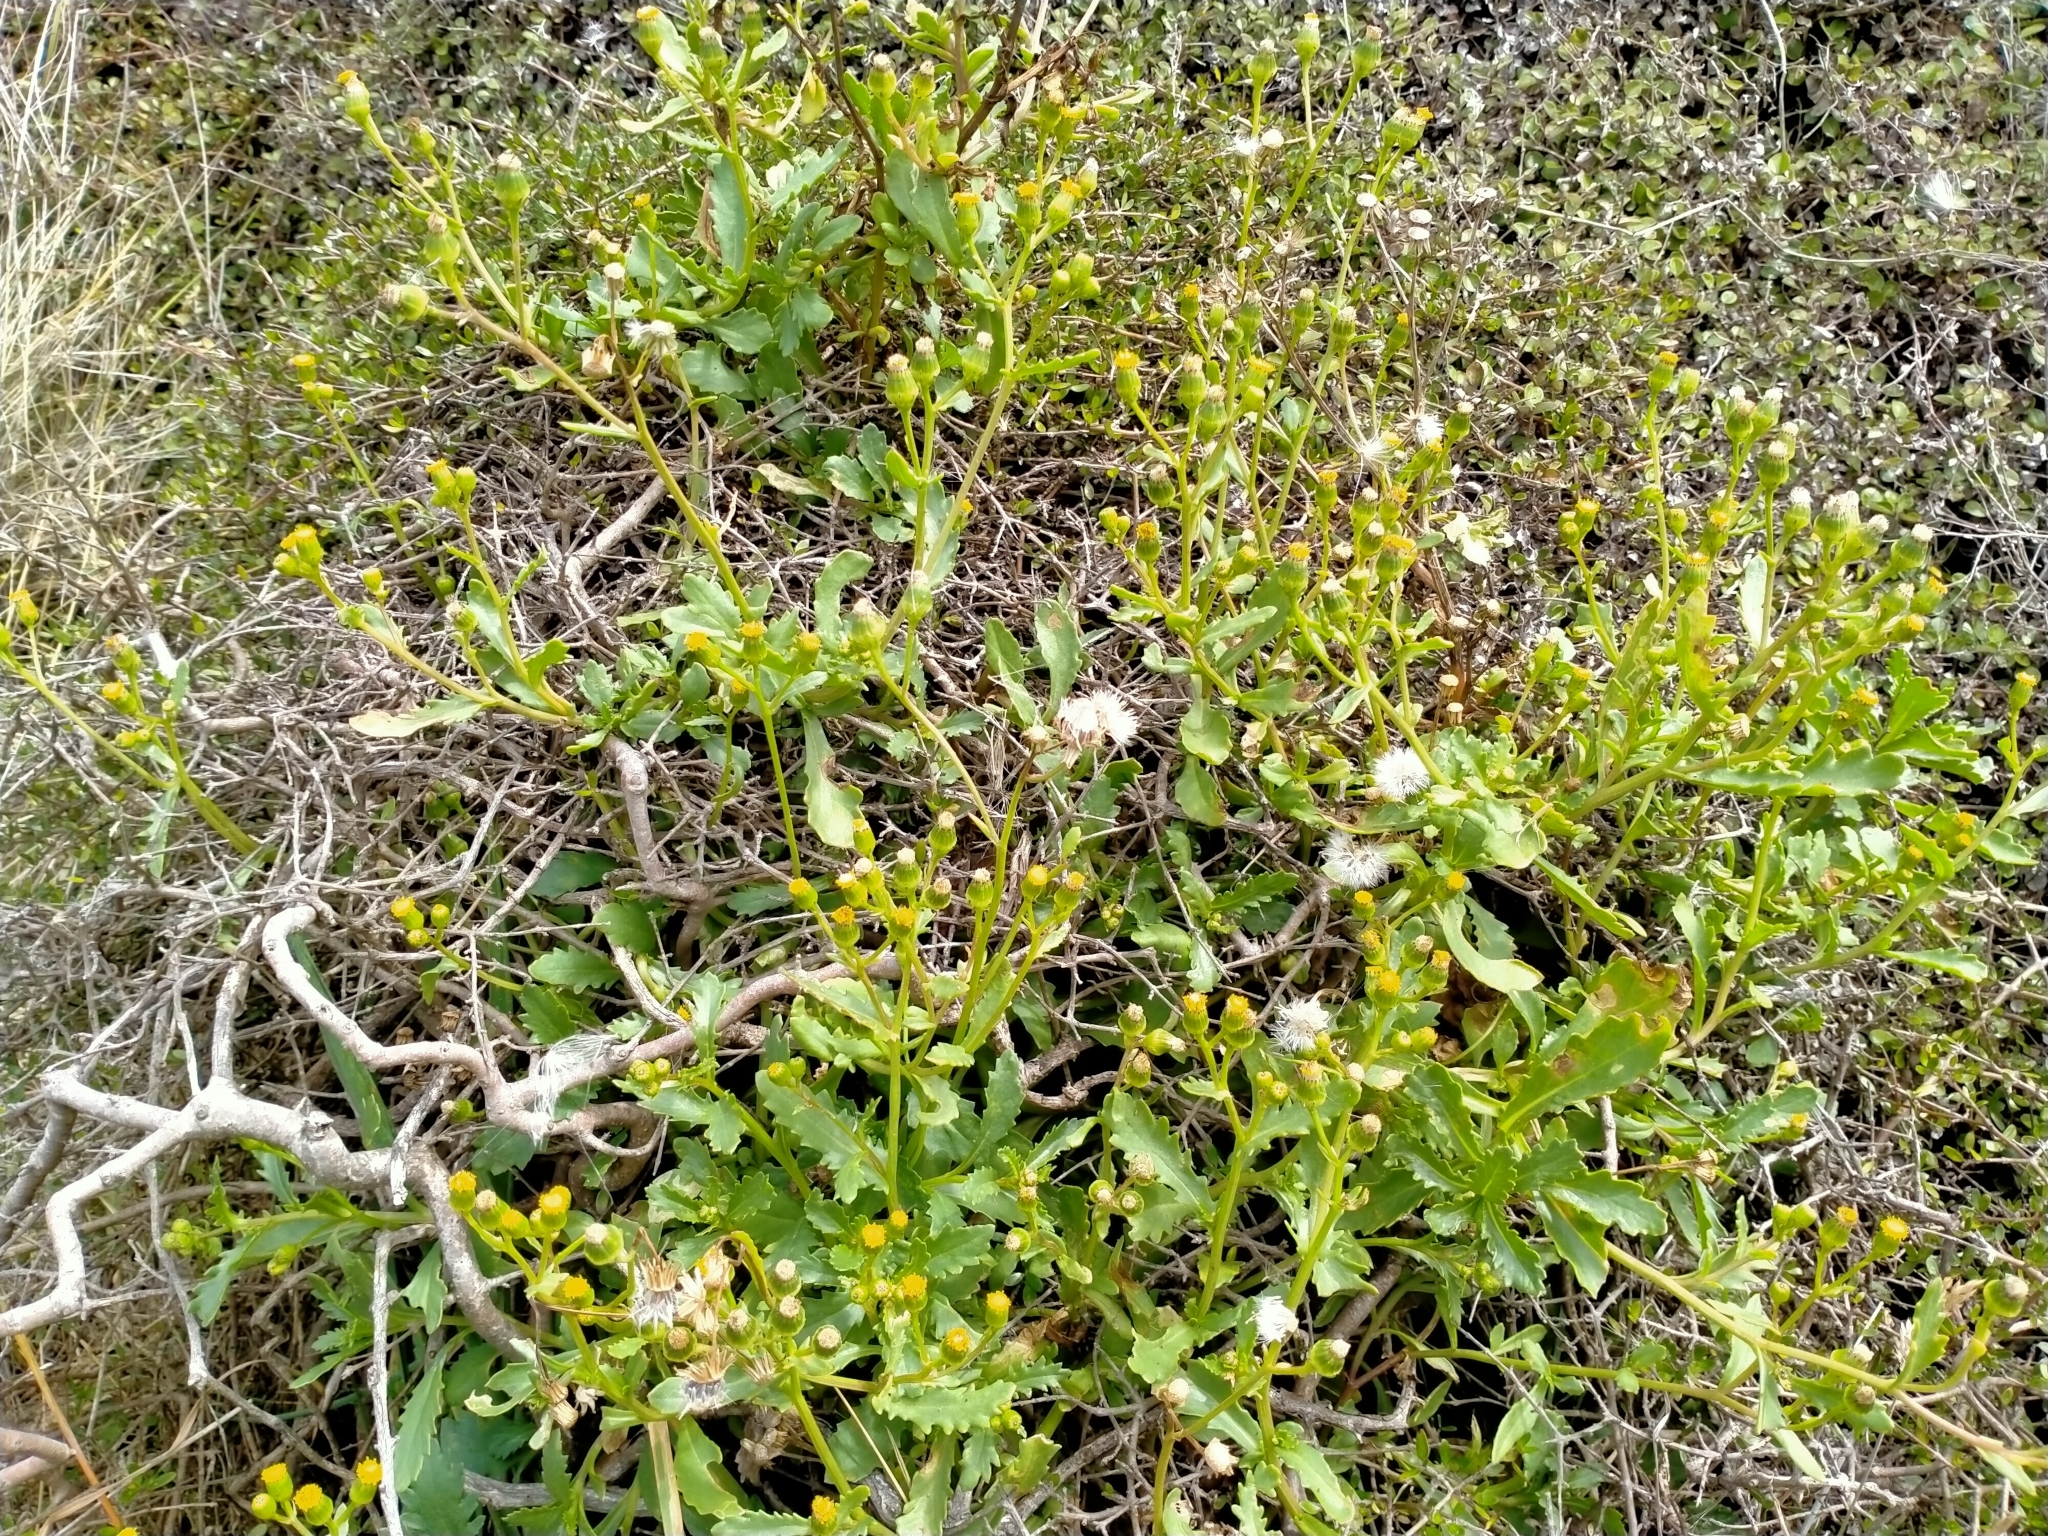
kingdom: Plantae
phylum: Tracheophyta
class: Magnoliopsida
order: Asterales
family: Asteraceae
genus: Senecio
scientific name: Senecio matatini
